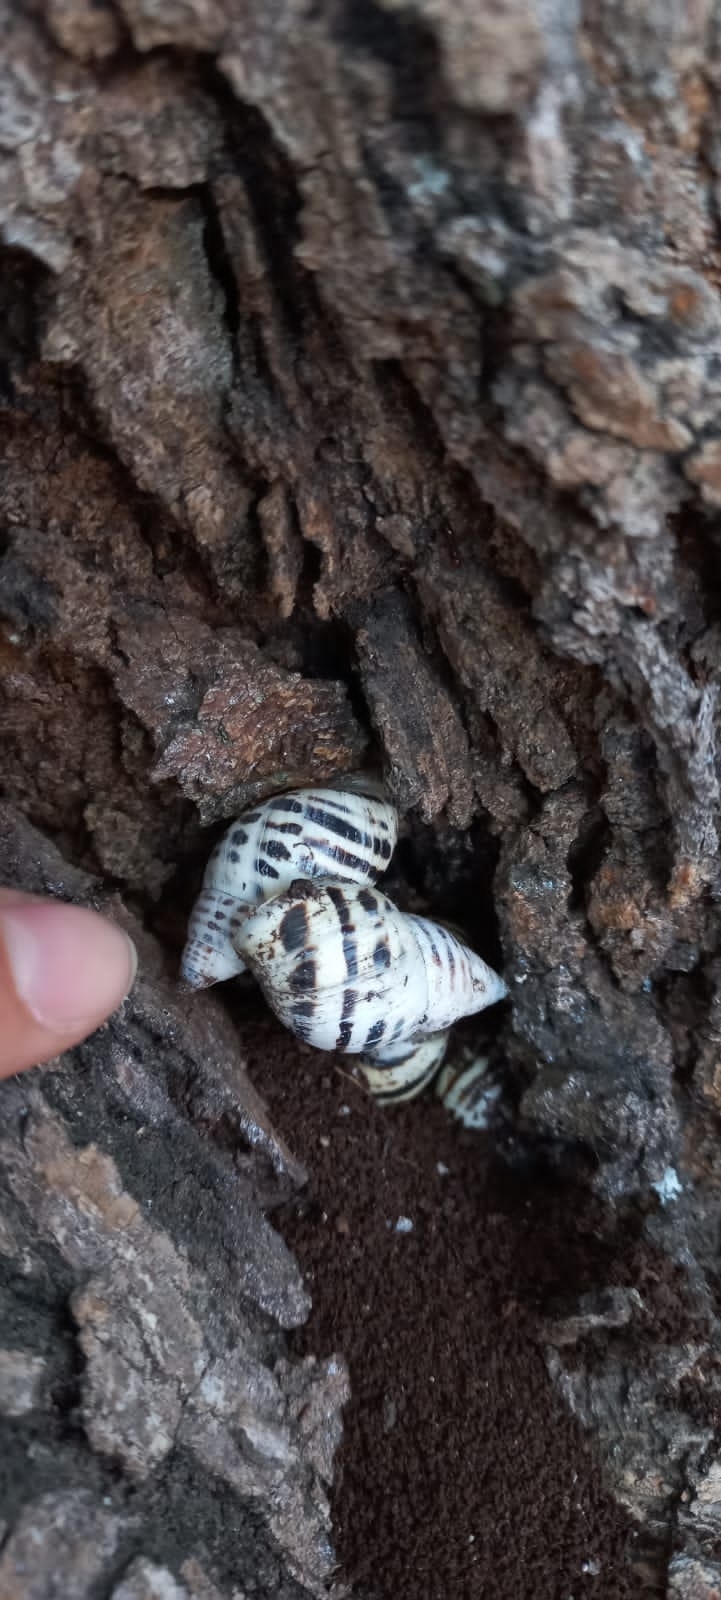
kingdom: Animalia
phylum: Mollusca
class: Gastropoda
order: Stylommatophora
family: Bulimulidae
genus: Drymaeus
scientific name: Drymaeus poecilus
